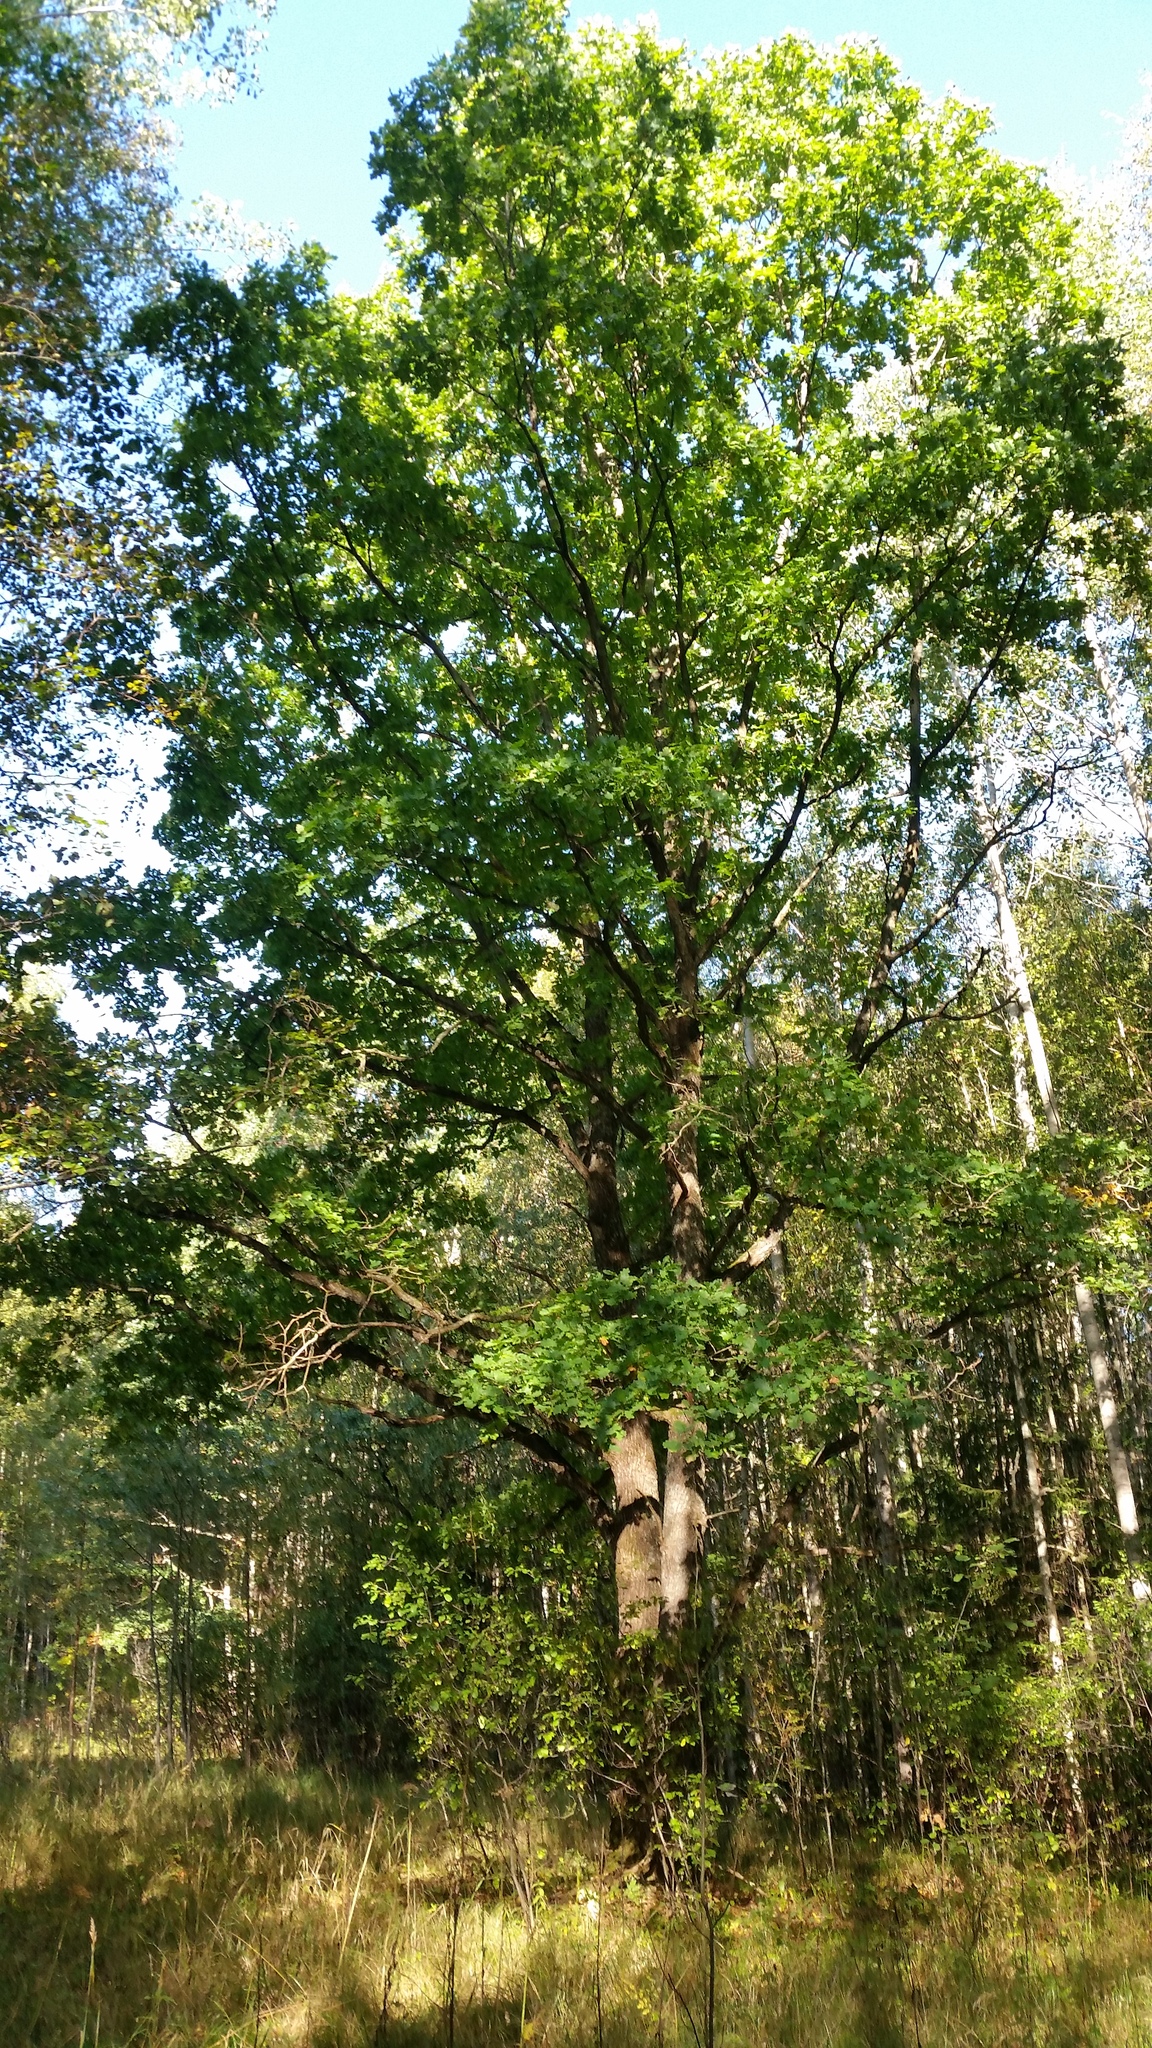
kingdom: Plantae
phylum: Tracheophyta
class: Magnoliopsida
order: Fagales
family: Fagaceae
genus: Quercus
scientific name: Quercus robur
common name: Pedunculate oak
